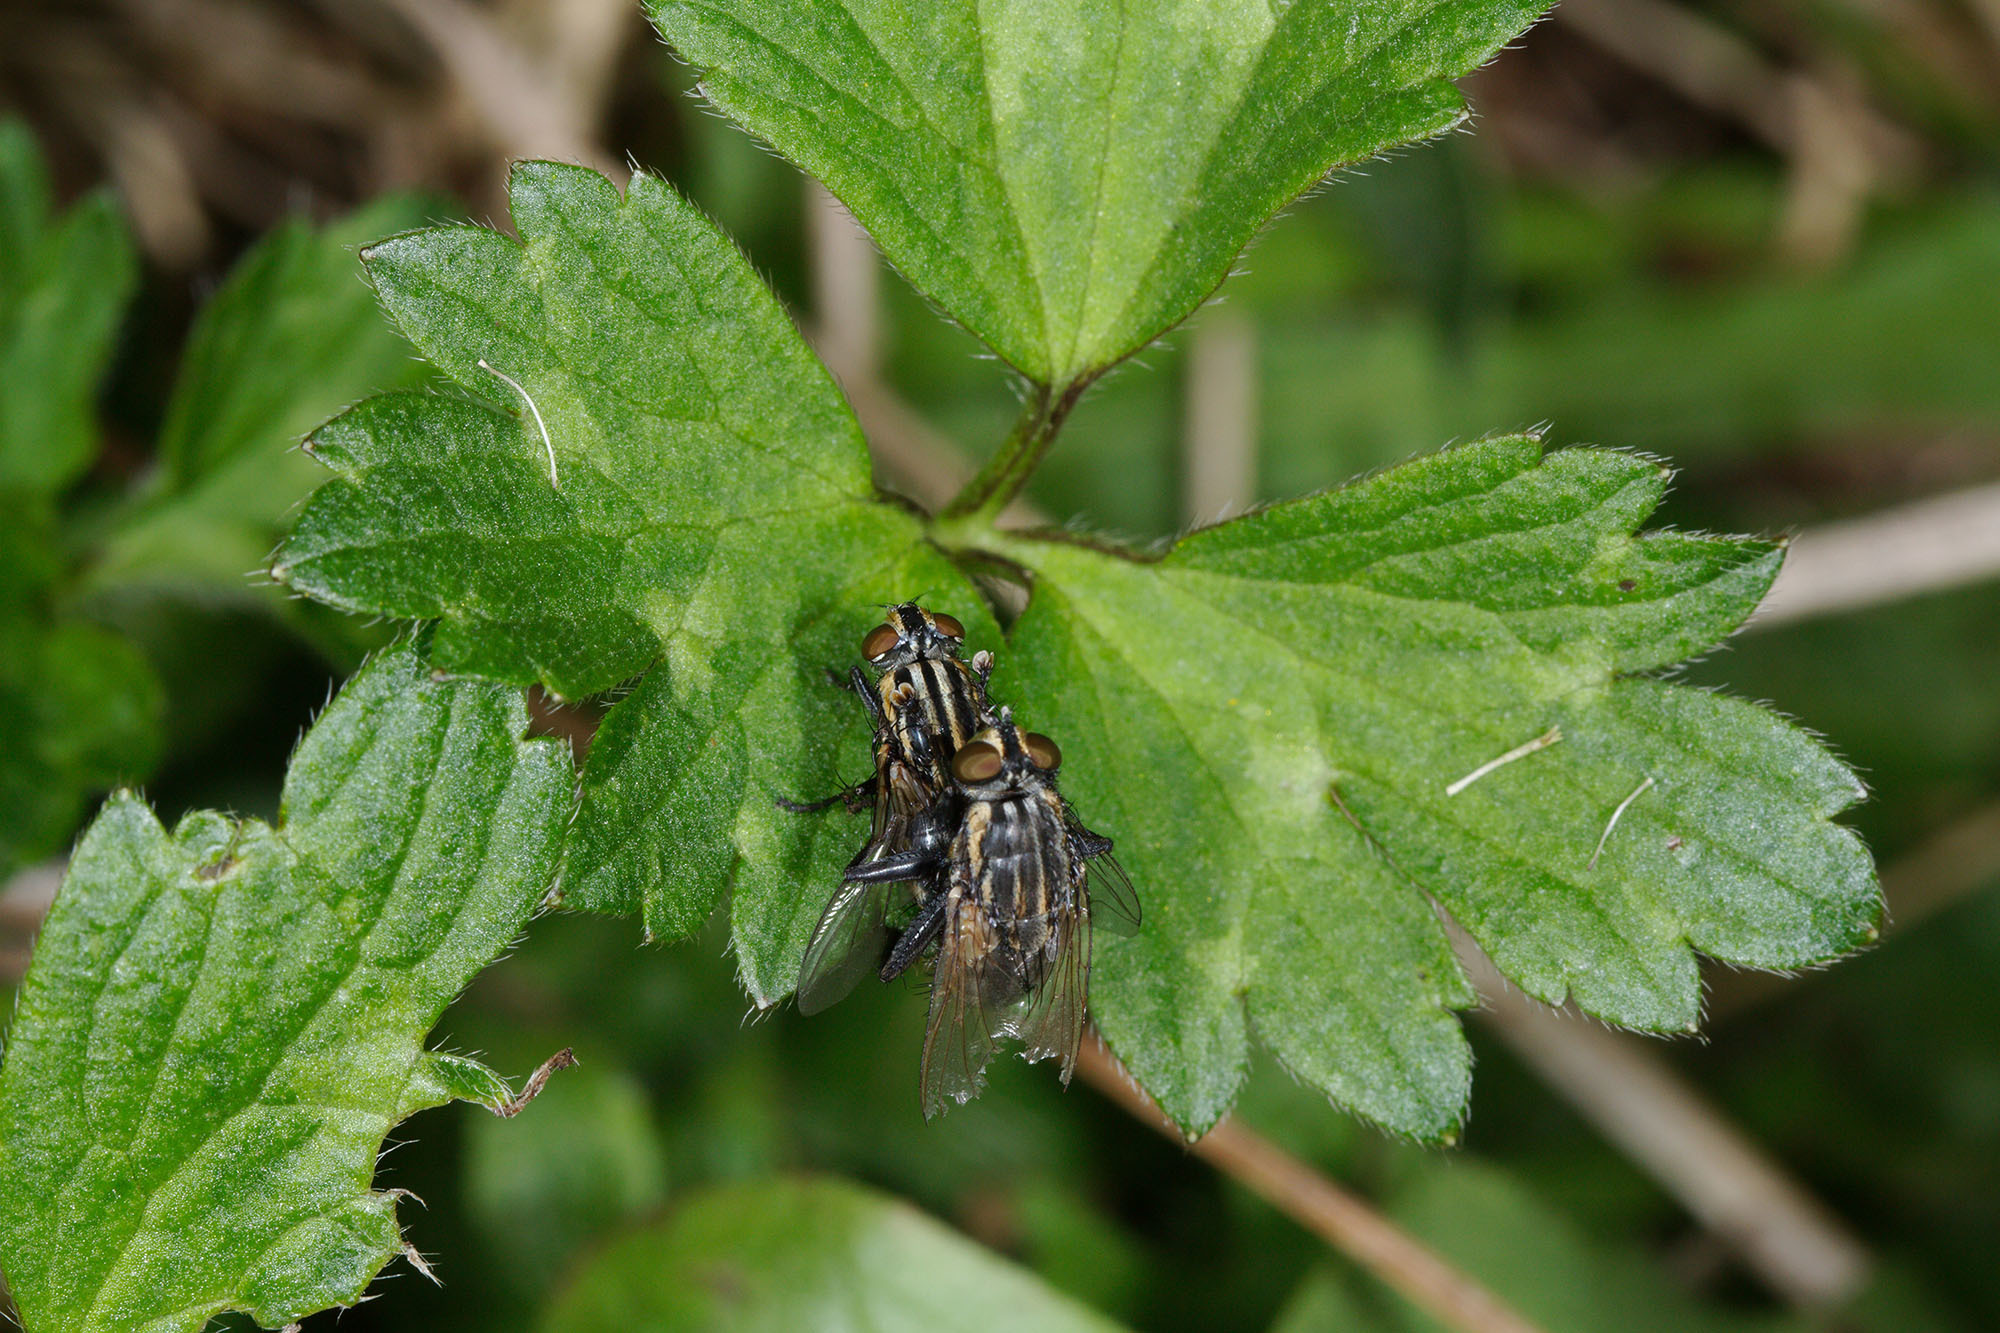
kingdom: Animalia
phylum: Arthropoda
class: Insecta
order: Diptera
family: Sarcophagidae
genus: Oxysarcodexia
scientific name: Oxysarcodexia varia
